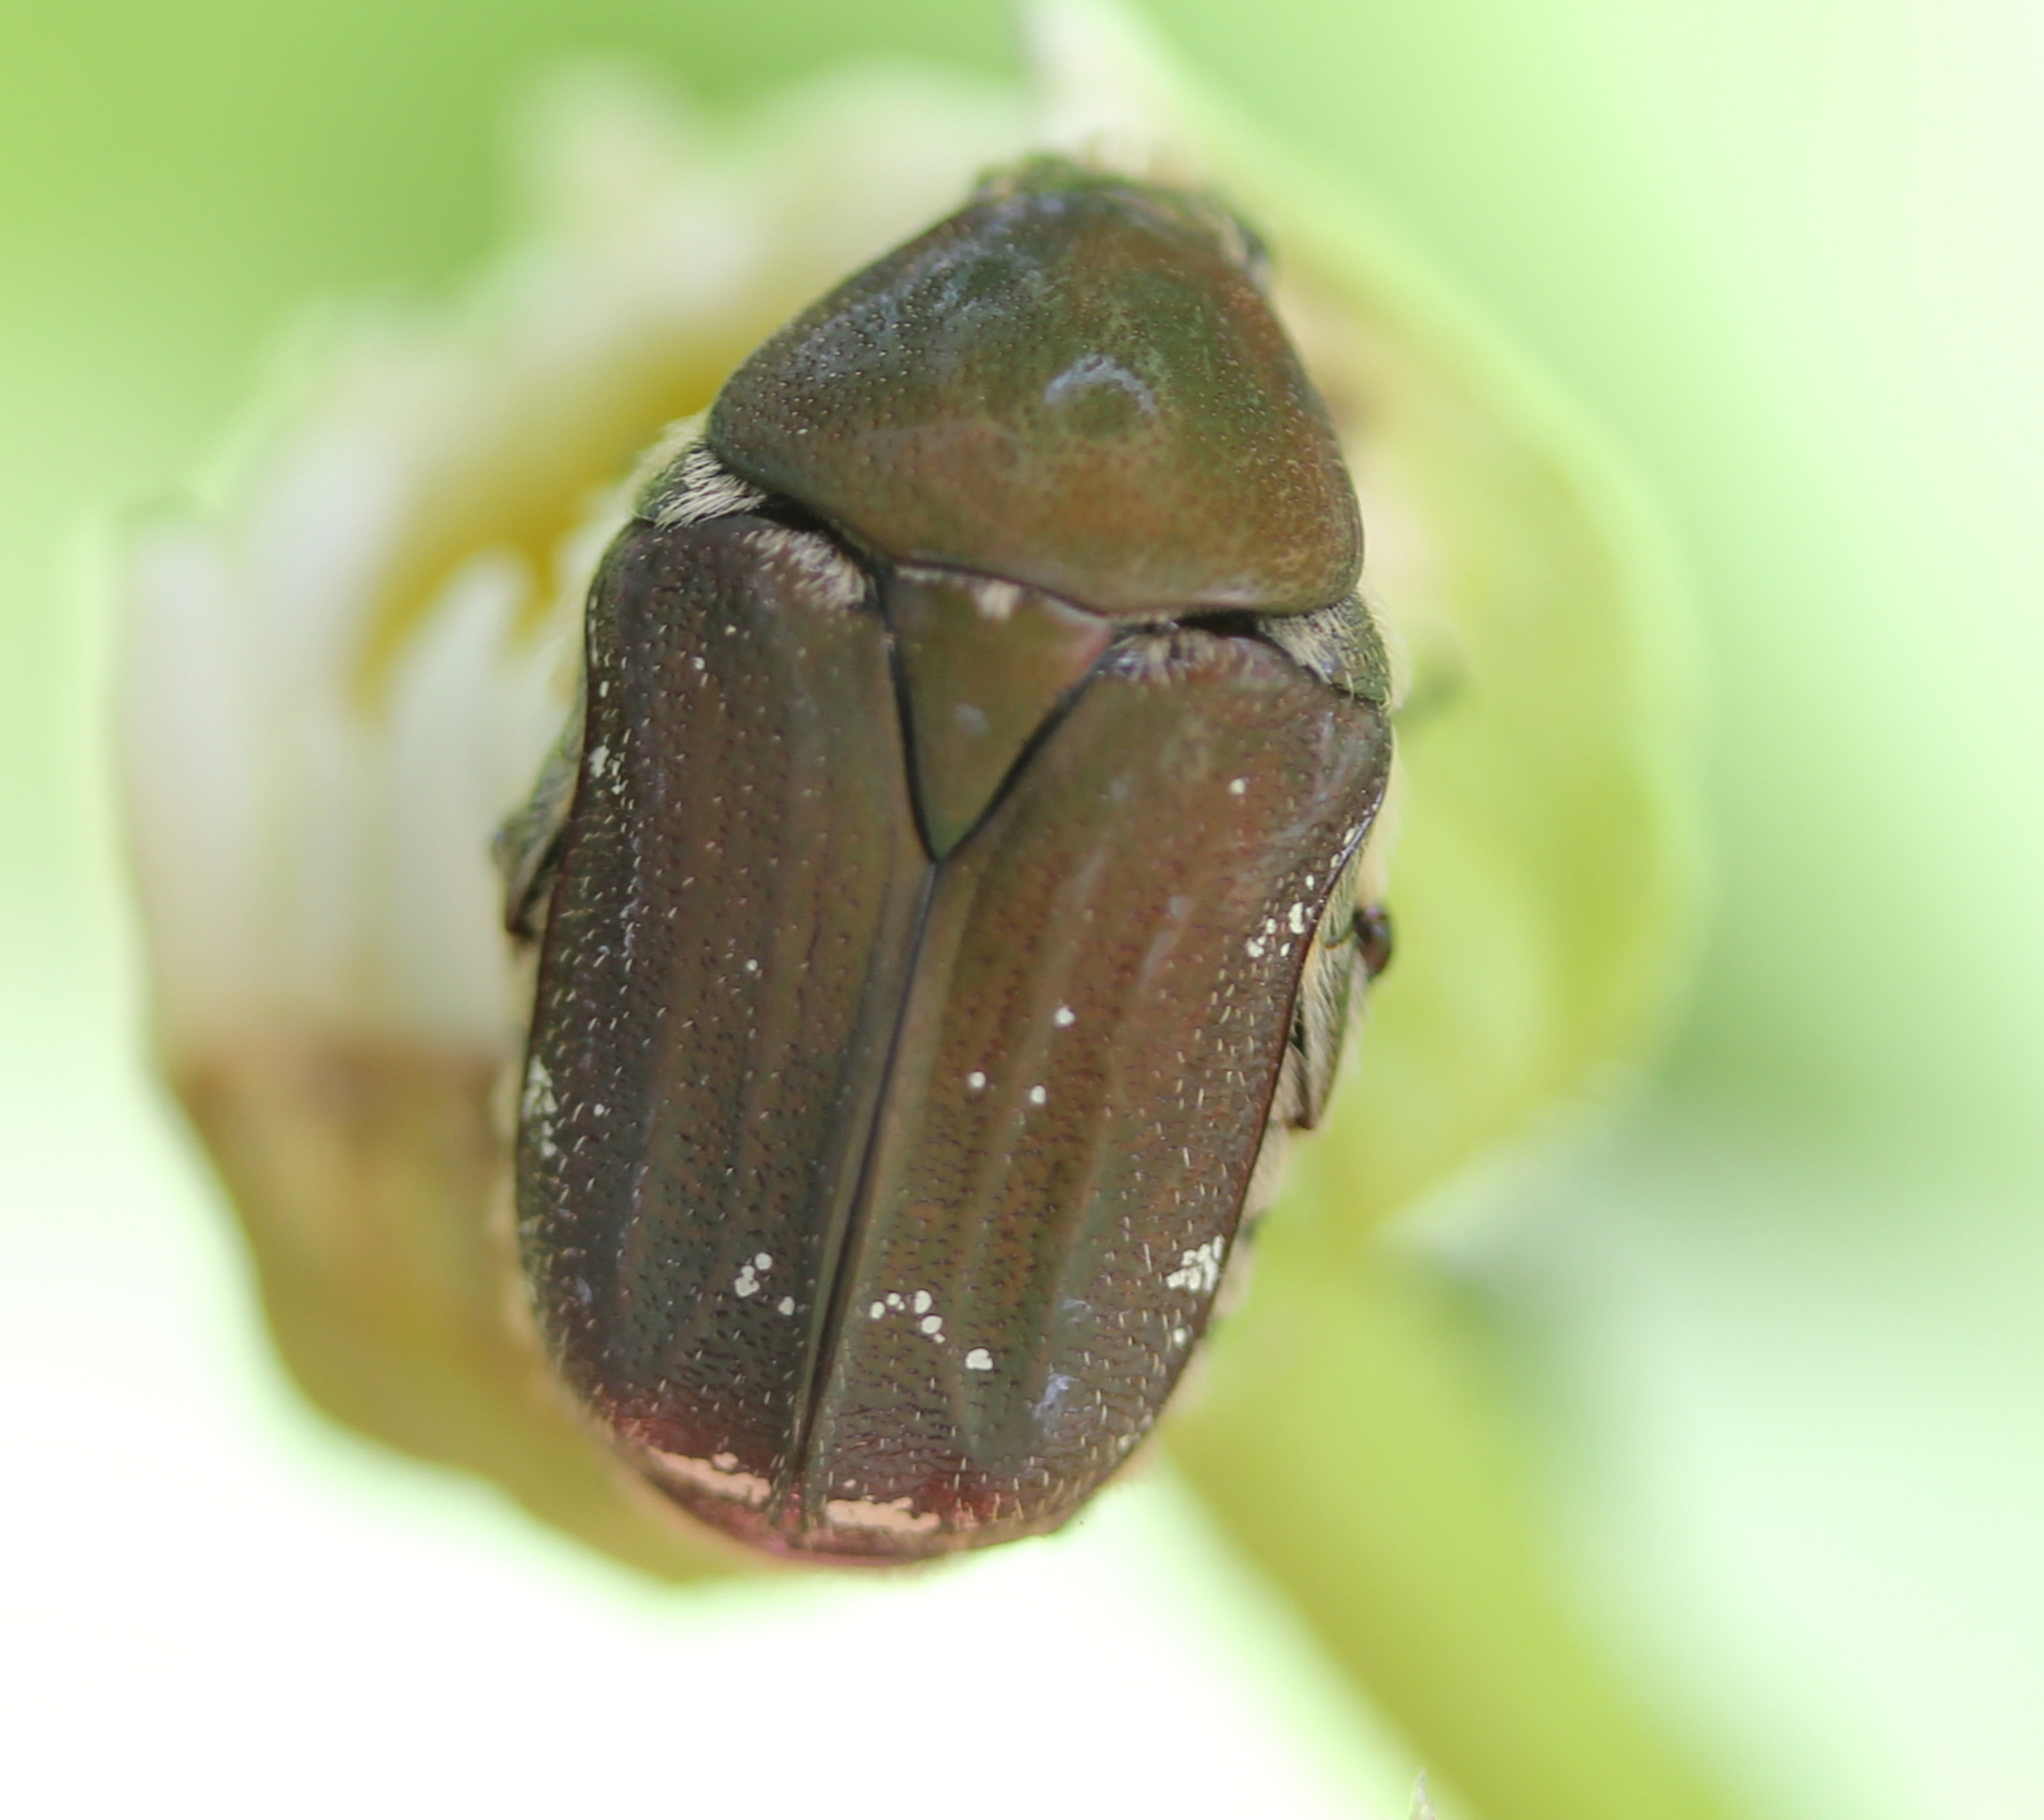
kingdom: Animalia
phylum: Arthropoda
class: Insecta
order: Coleoptera
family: Scarabaeidae
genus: Euphoria
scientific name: Euphoria herbacea
